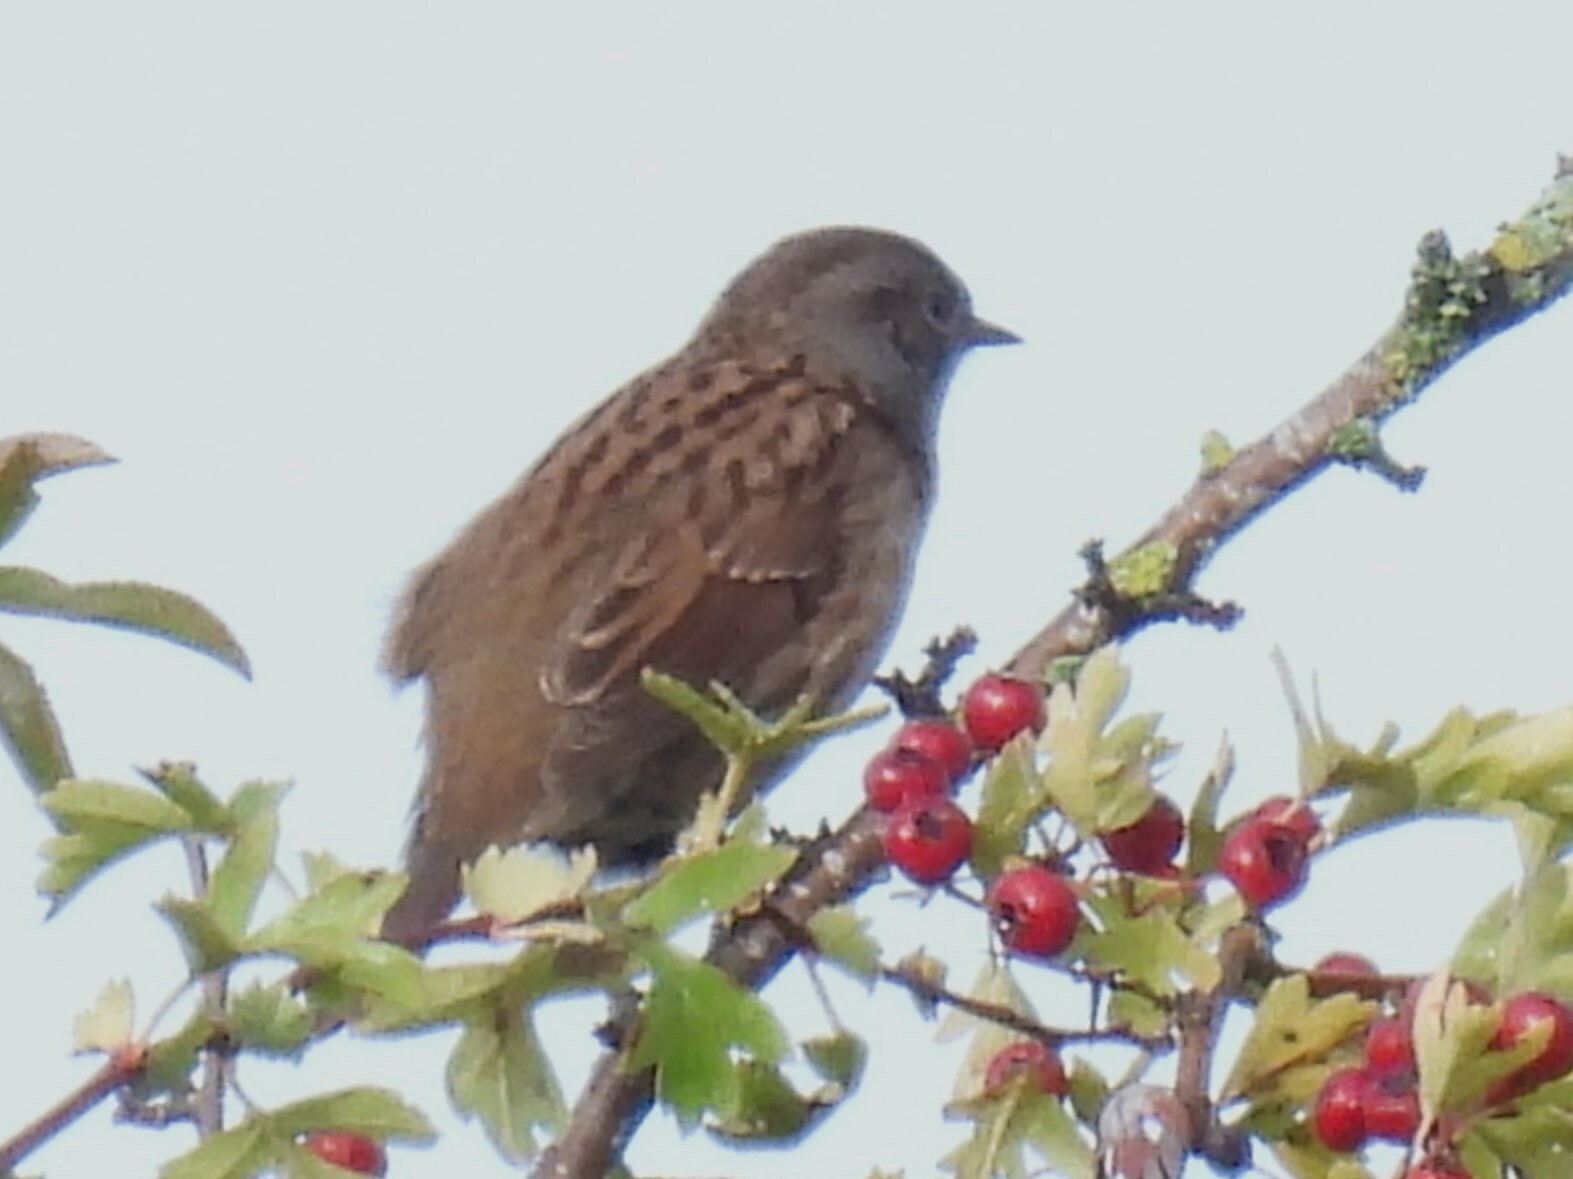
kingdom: Animalia
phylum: Chordata
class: Aves
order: Passeriformes
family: Prunellidae
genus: Prunella
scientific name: Prunella modularis
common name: Dunnock
